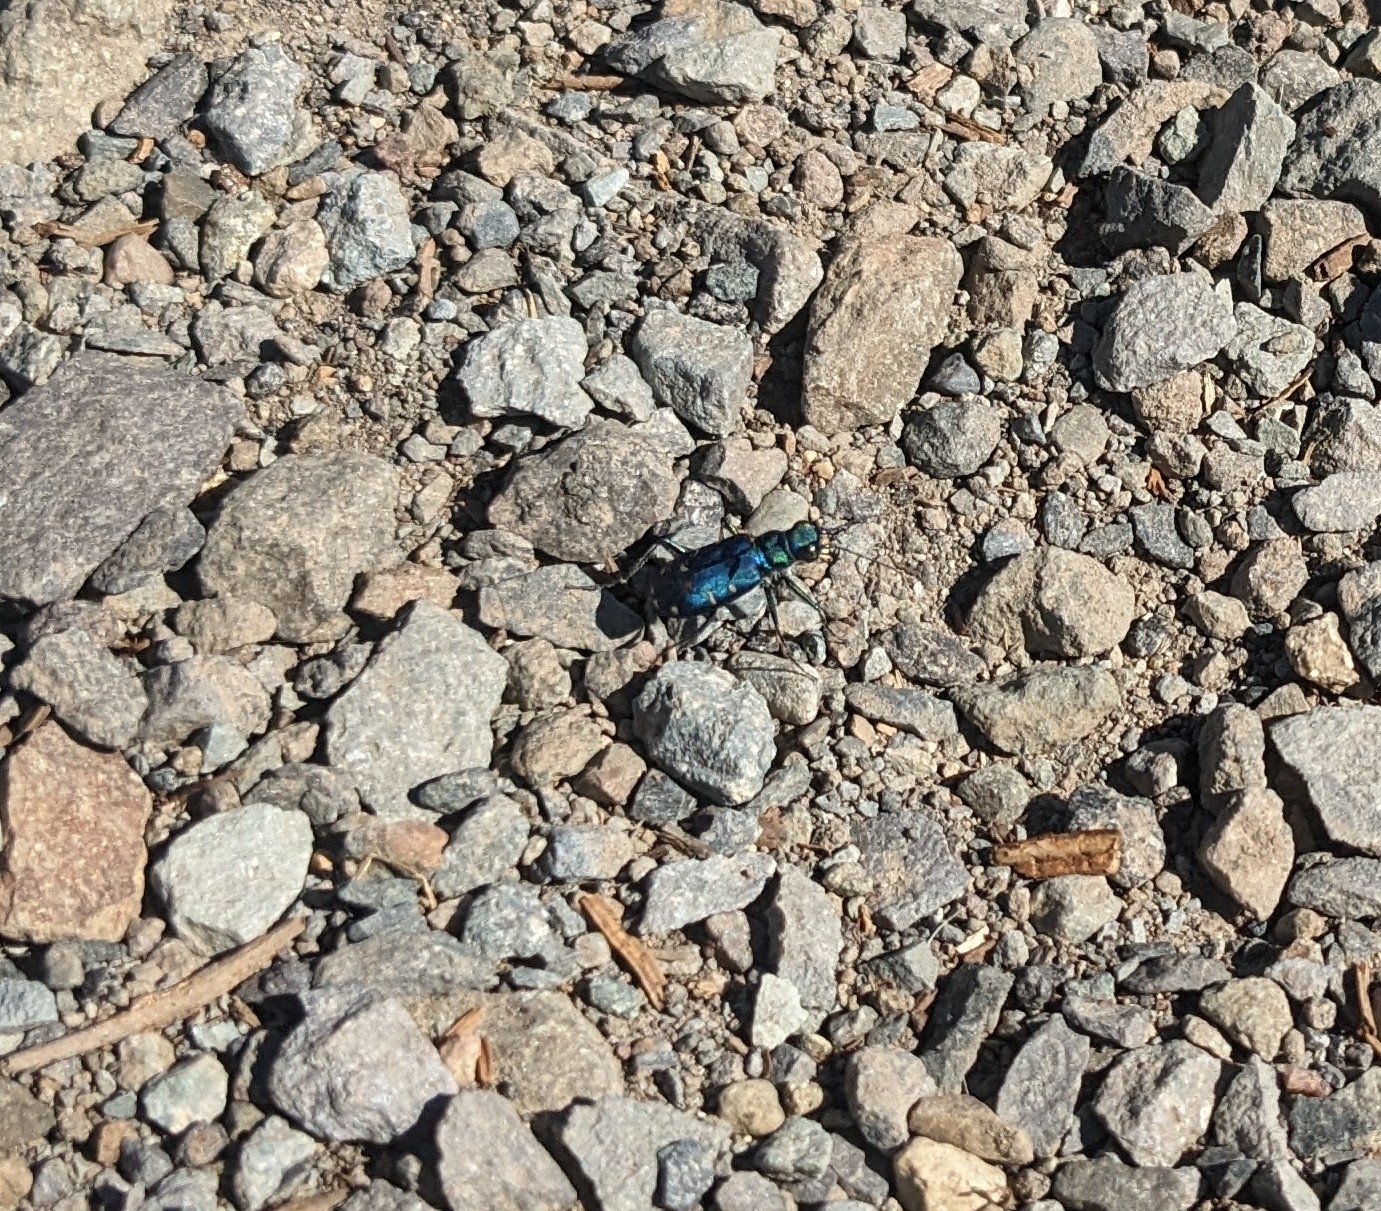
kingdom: Animalia
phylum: Arthropoda
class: Insecta
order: Coleoptera
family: Carabidae
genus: Cicindela
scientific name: Cicindela depressula
